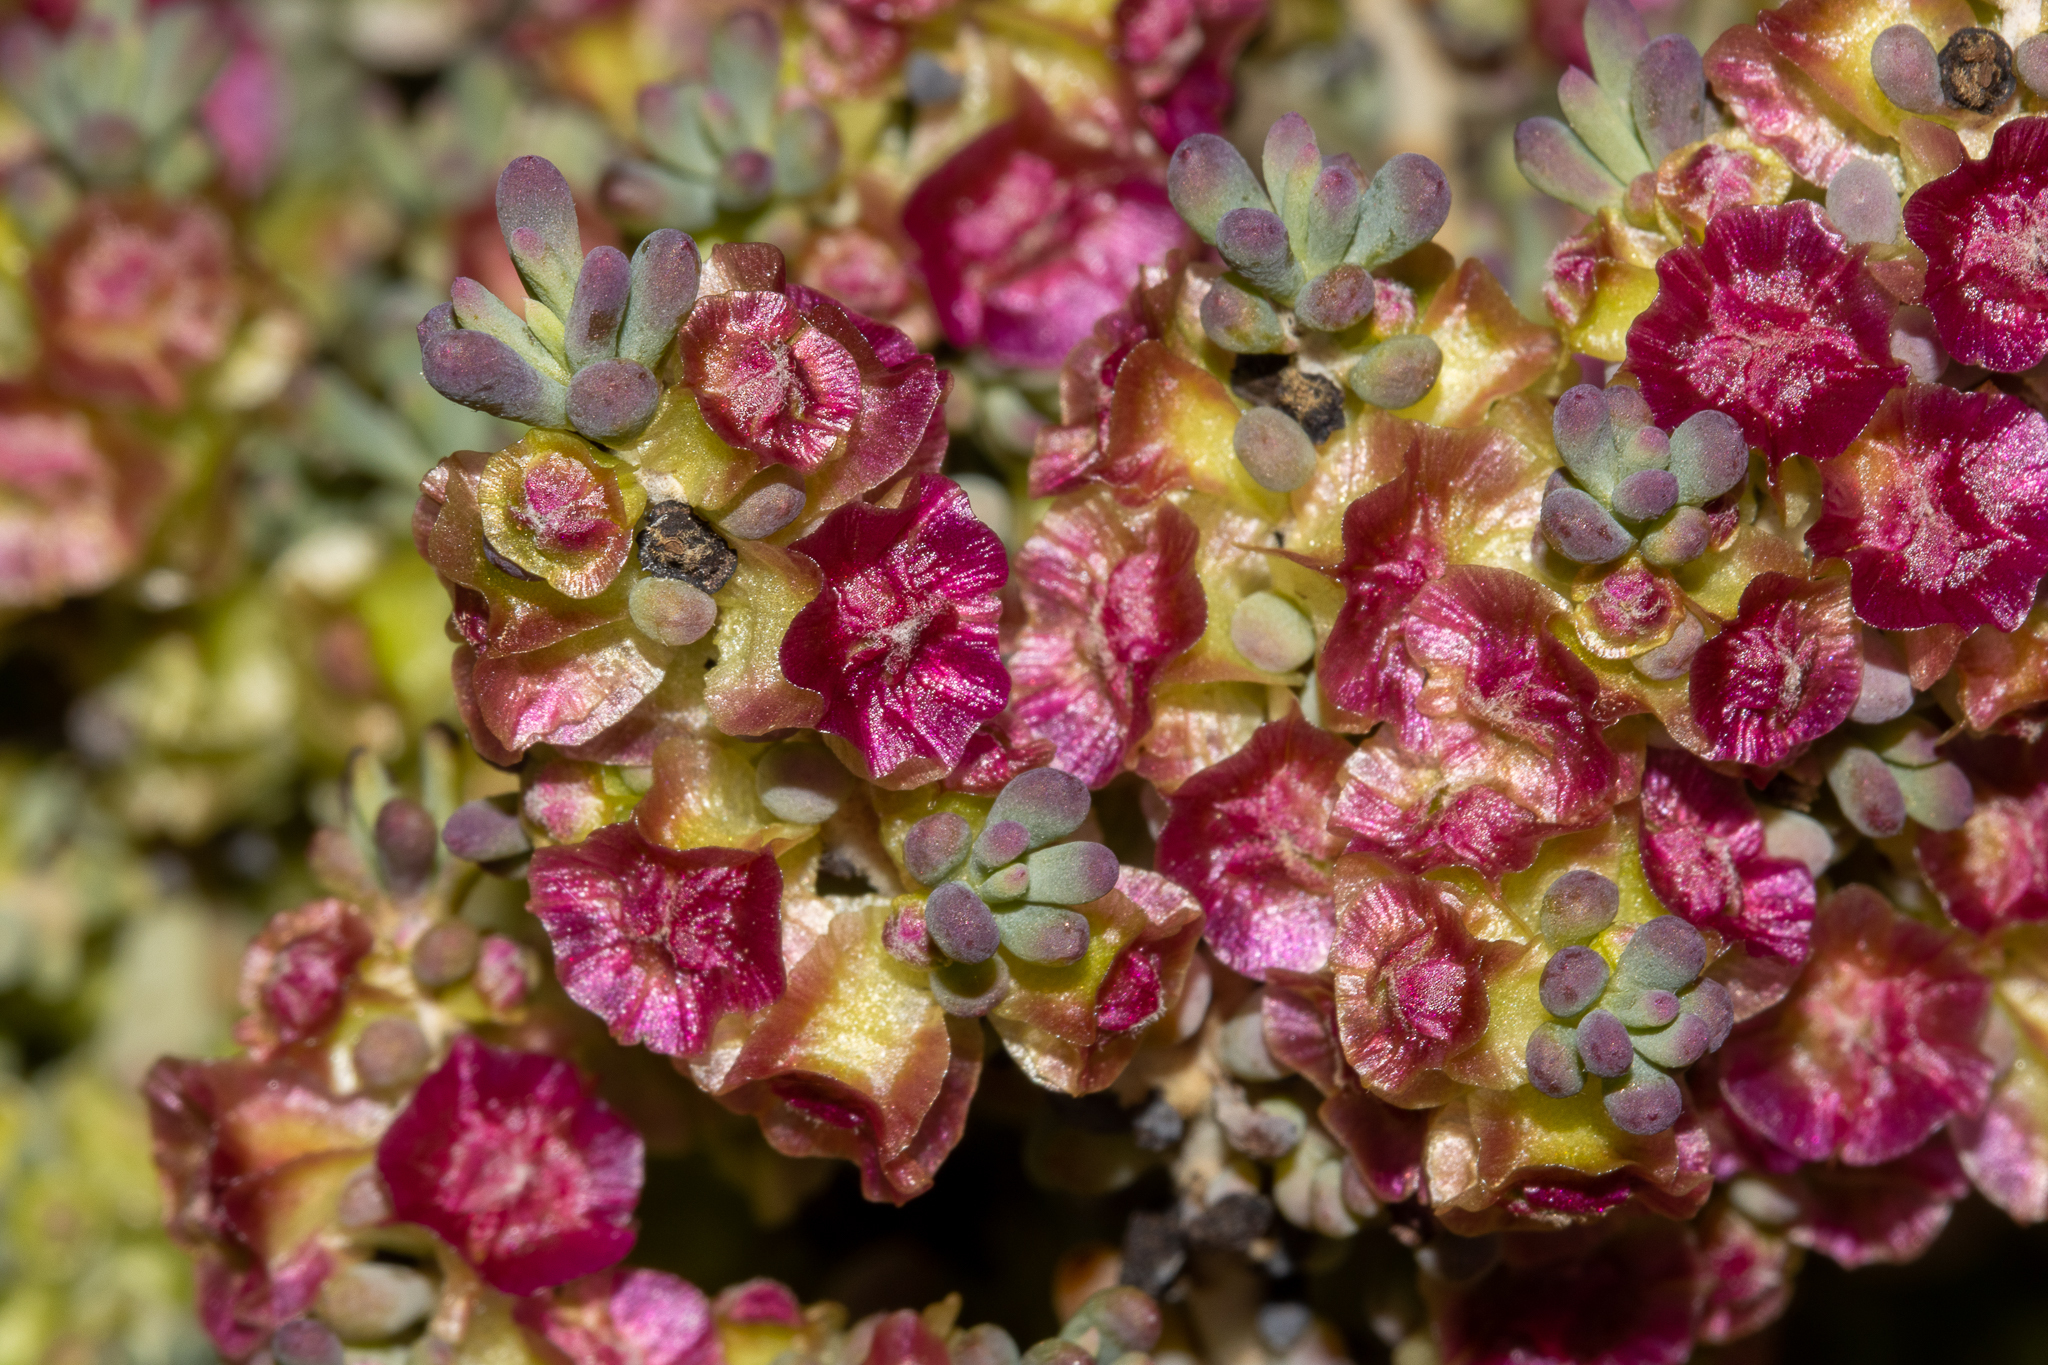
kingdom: Plantae
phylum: Tracheophyta
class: Magnoliopsida
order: Caryophyllales
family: Amaranthaceae
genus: Maireana
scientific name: Maireana erioclada
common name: Rosy bluebush
